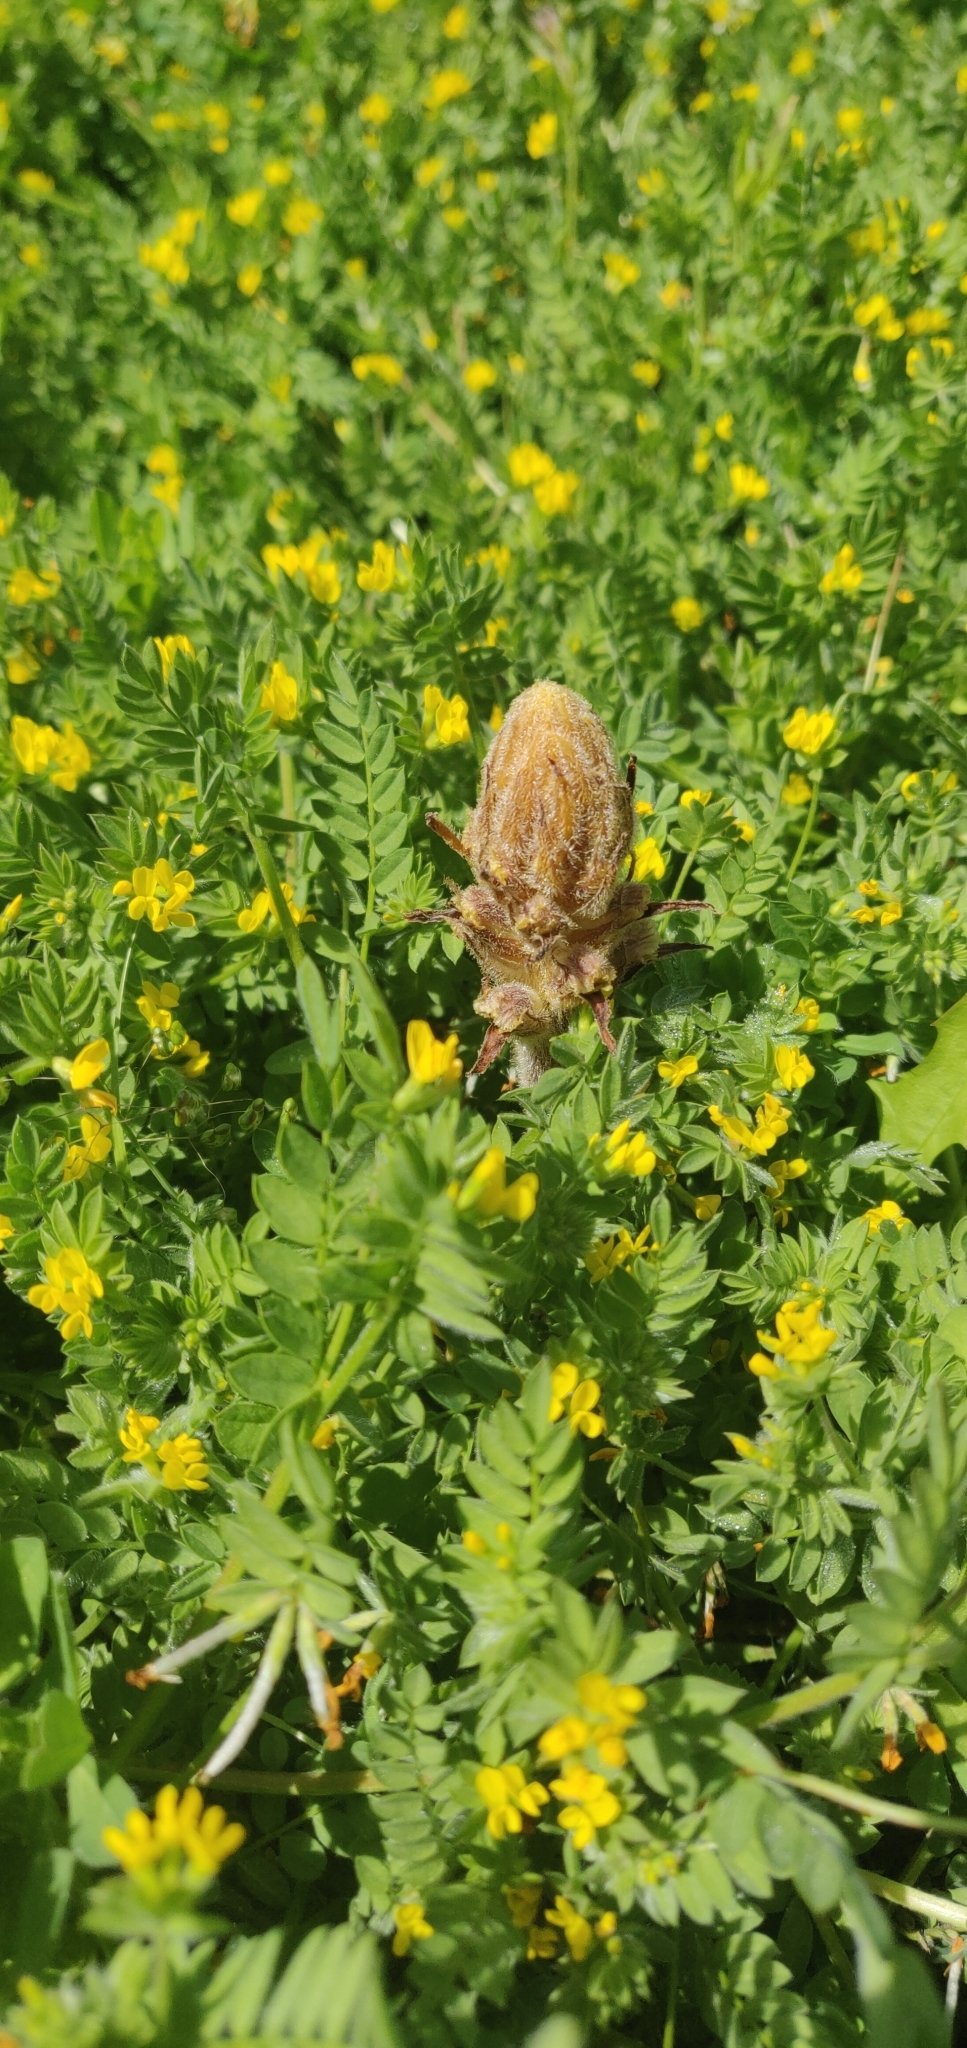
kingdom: Plantae
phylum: Tracheophyta
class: Magnoliopsida
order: Lamiales
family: Orobanchaceae
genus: Orobanche
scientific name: Orobanche minor
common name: Common broomrape
